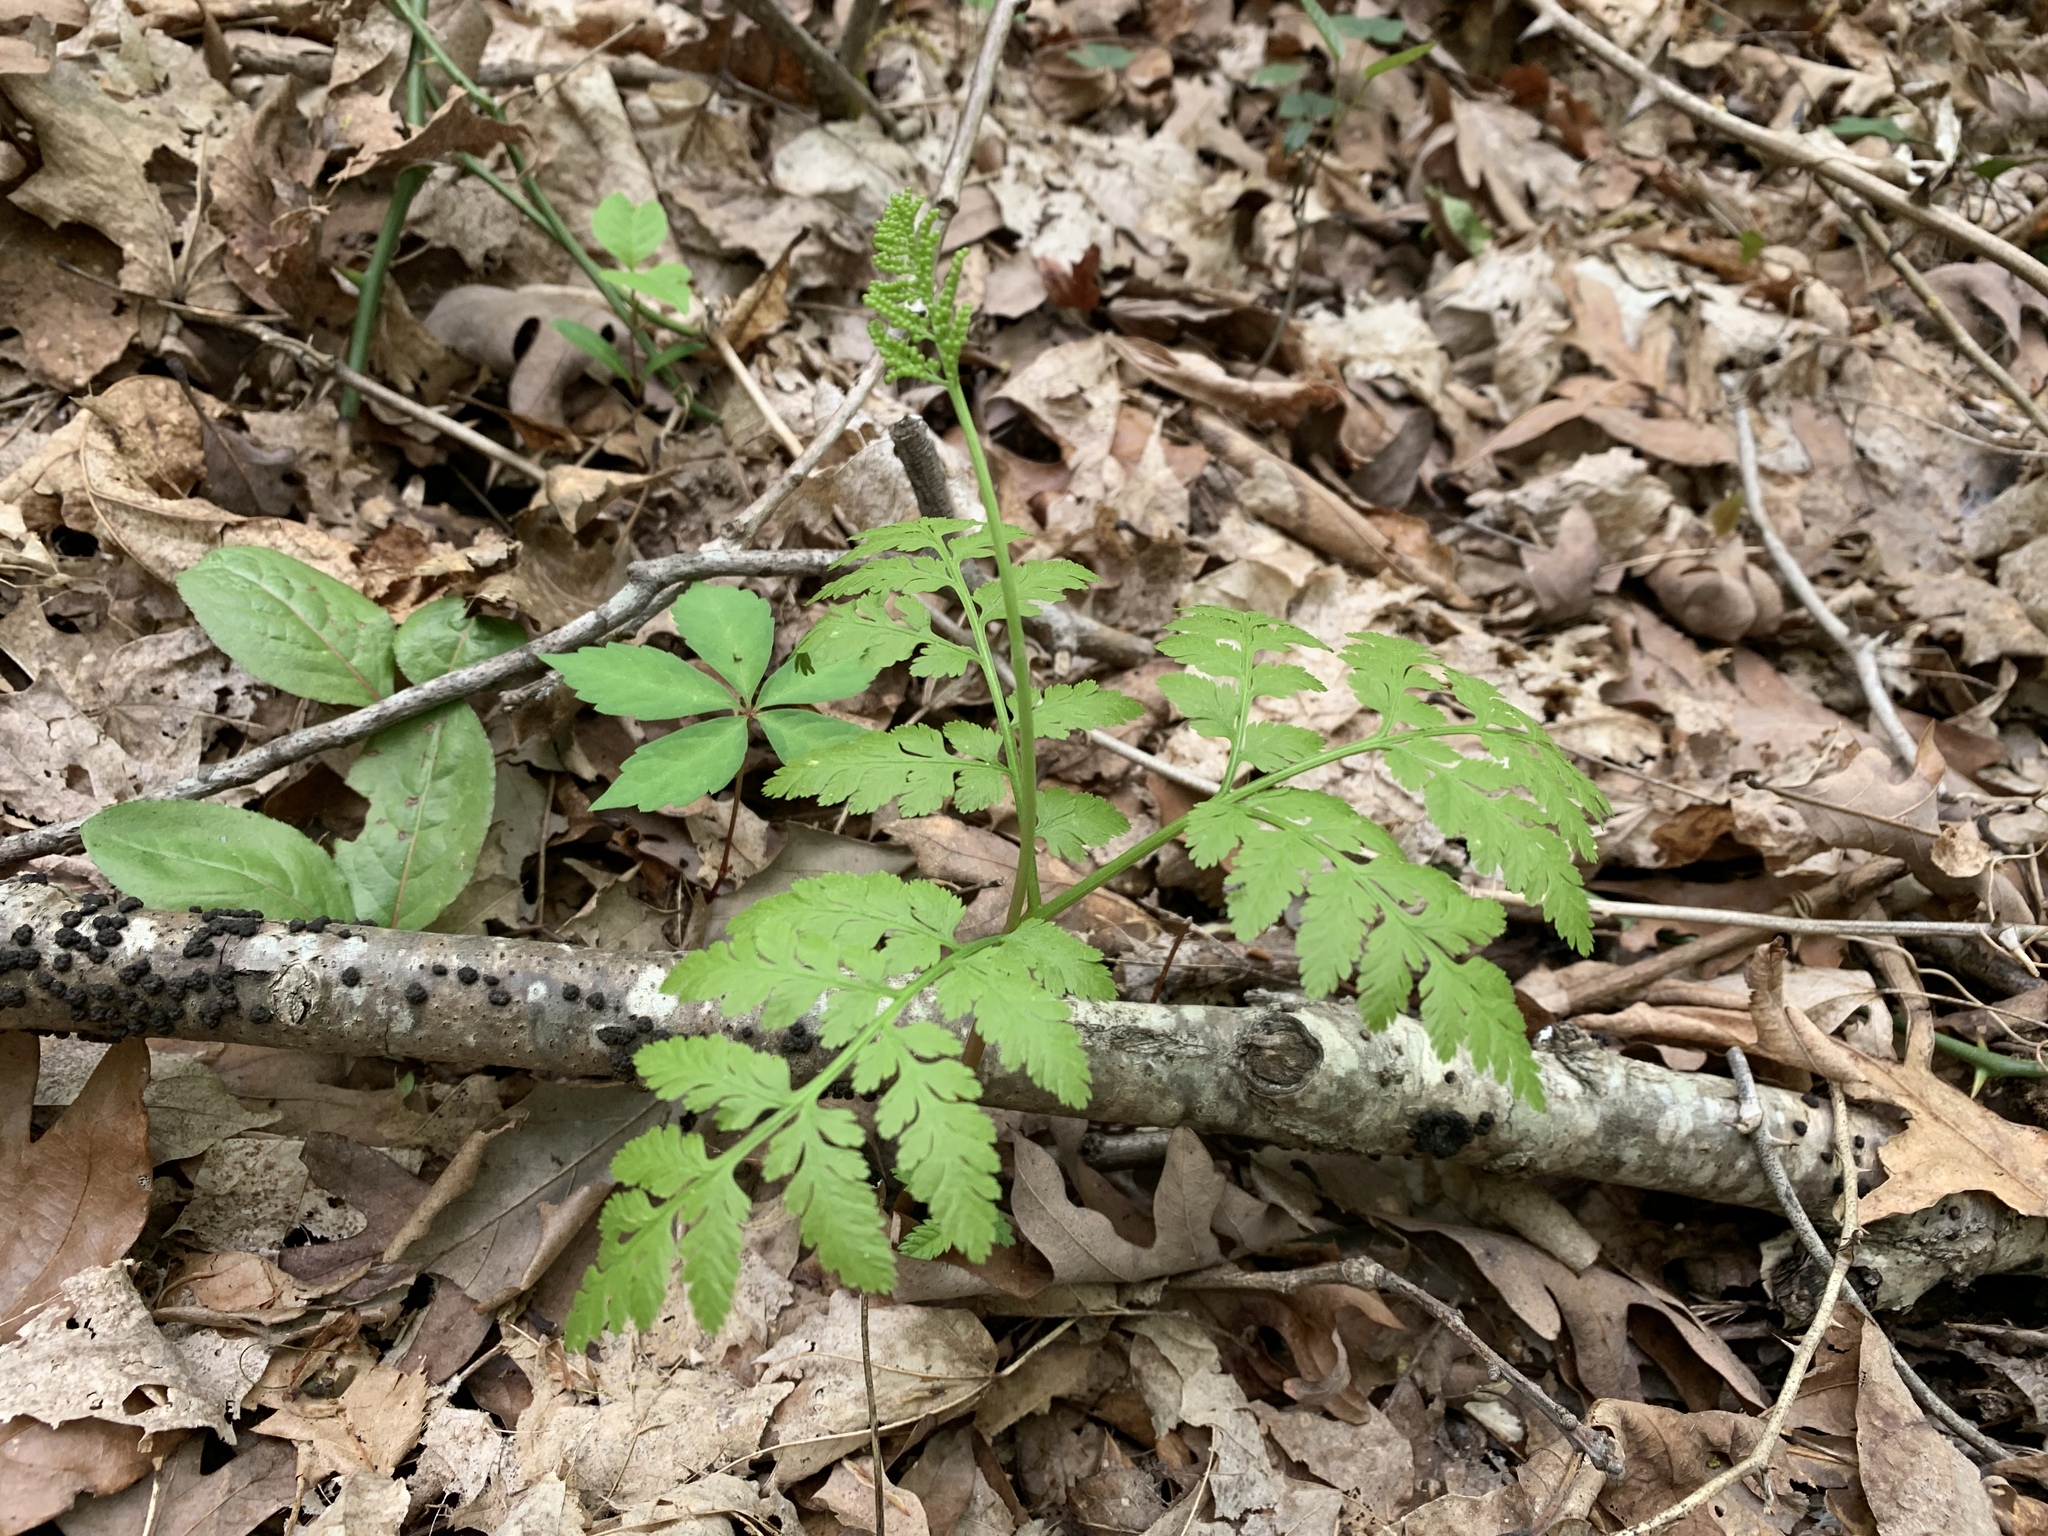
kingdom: Plantae
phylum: Tracheophyta
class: Polypodiopsida
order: Ophioglossales
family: Ophioglossaceae
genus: Botrypus
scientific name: Botrypus virginianus
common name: Common grapefern
